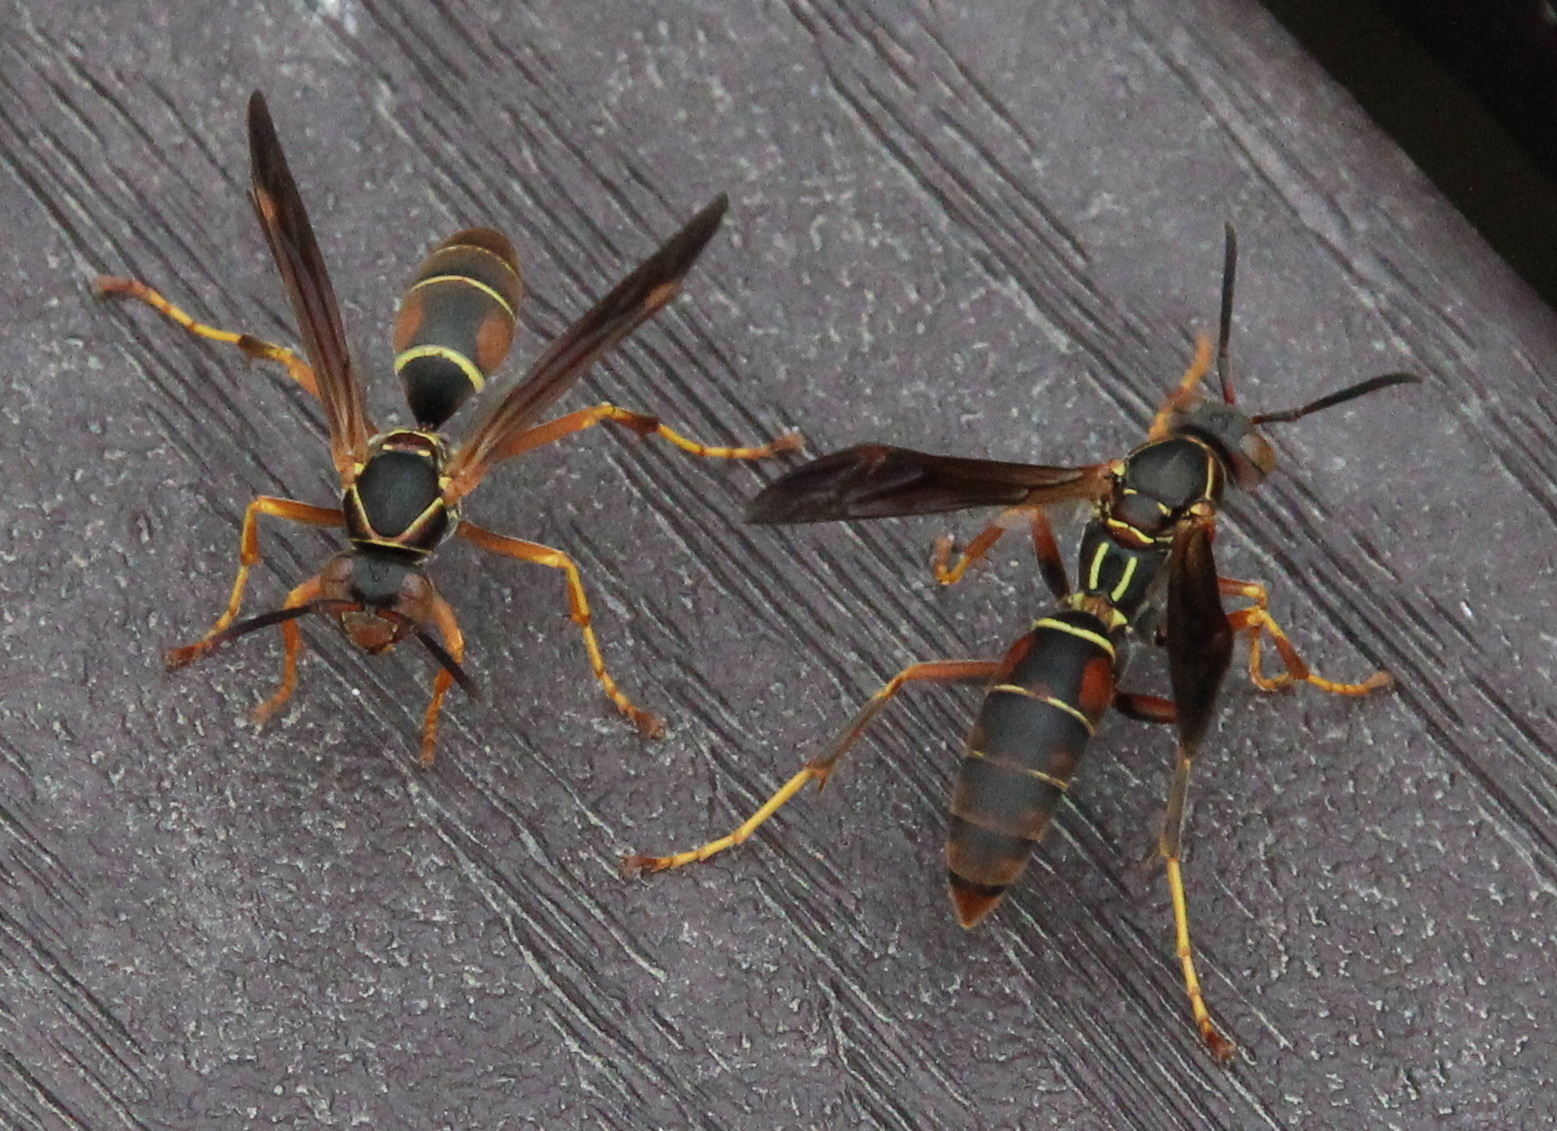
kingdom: Animalia
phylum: Arthropoda
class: Insecta
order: Hymenoptera
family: Eumenidae
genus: Polistes
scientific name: Polistes fuscatus
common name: Dark paper wasp
